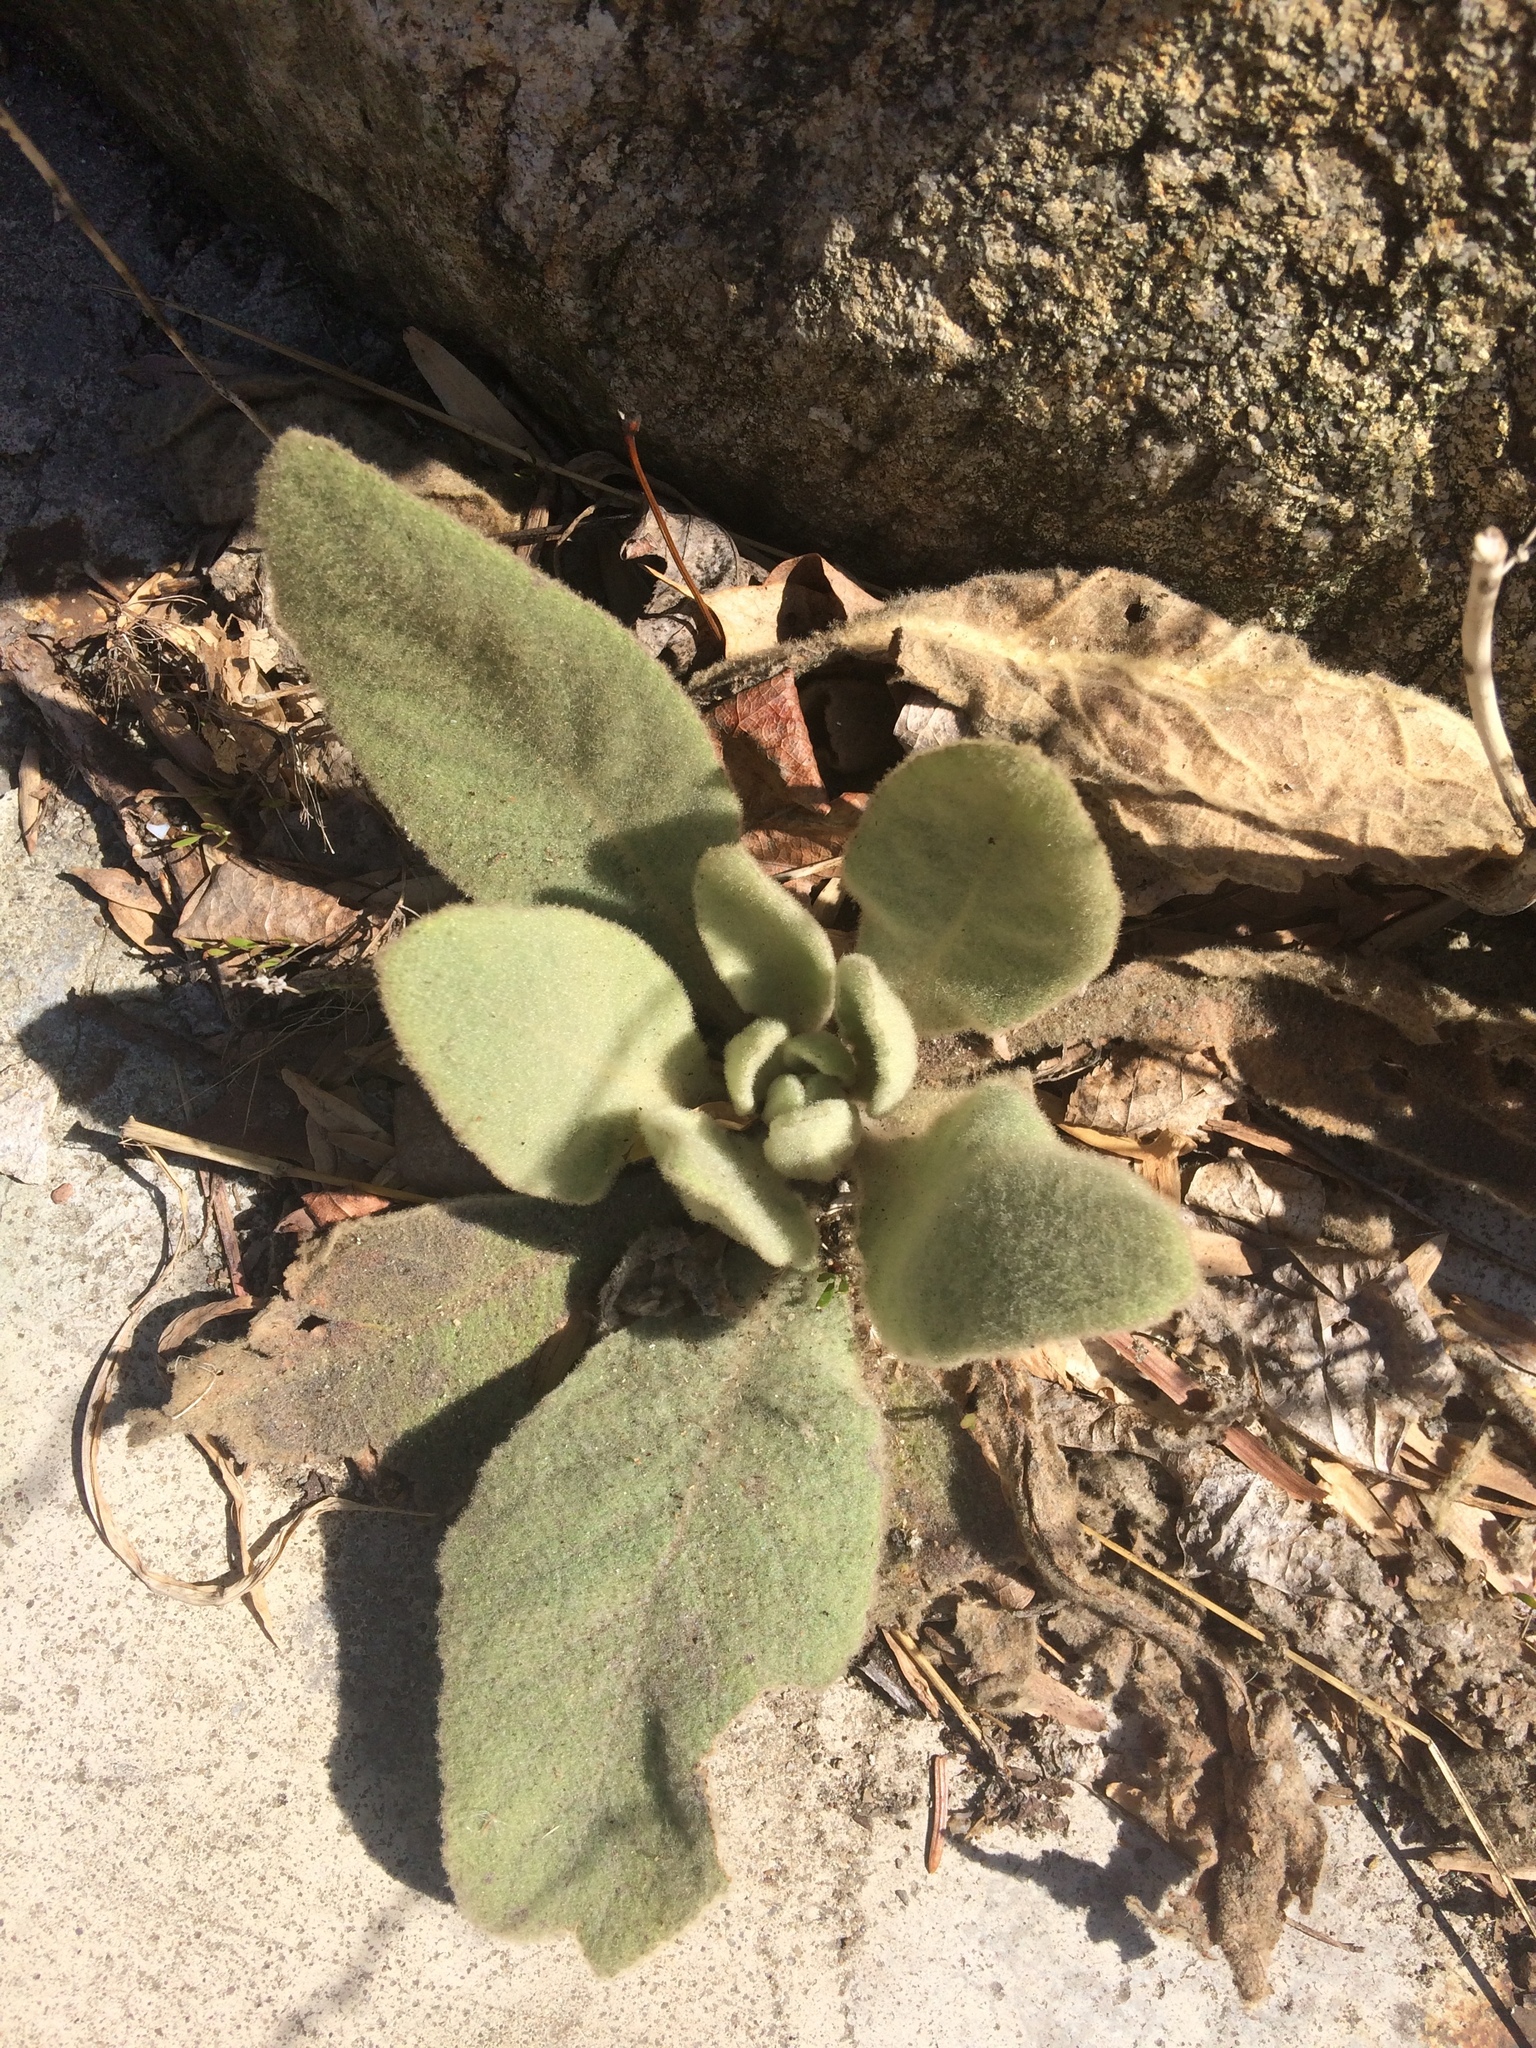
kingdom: Plantae
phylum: Tracheophyta
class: Magnoliopsida
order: Lamiales
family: Scrophulariaceae
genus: Verbascum
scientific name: Verbascum thapsus
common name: Common mullein
